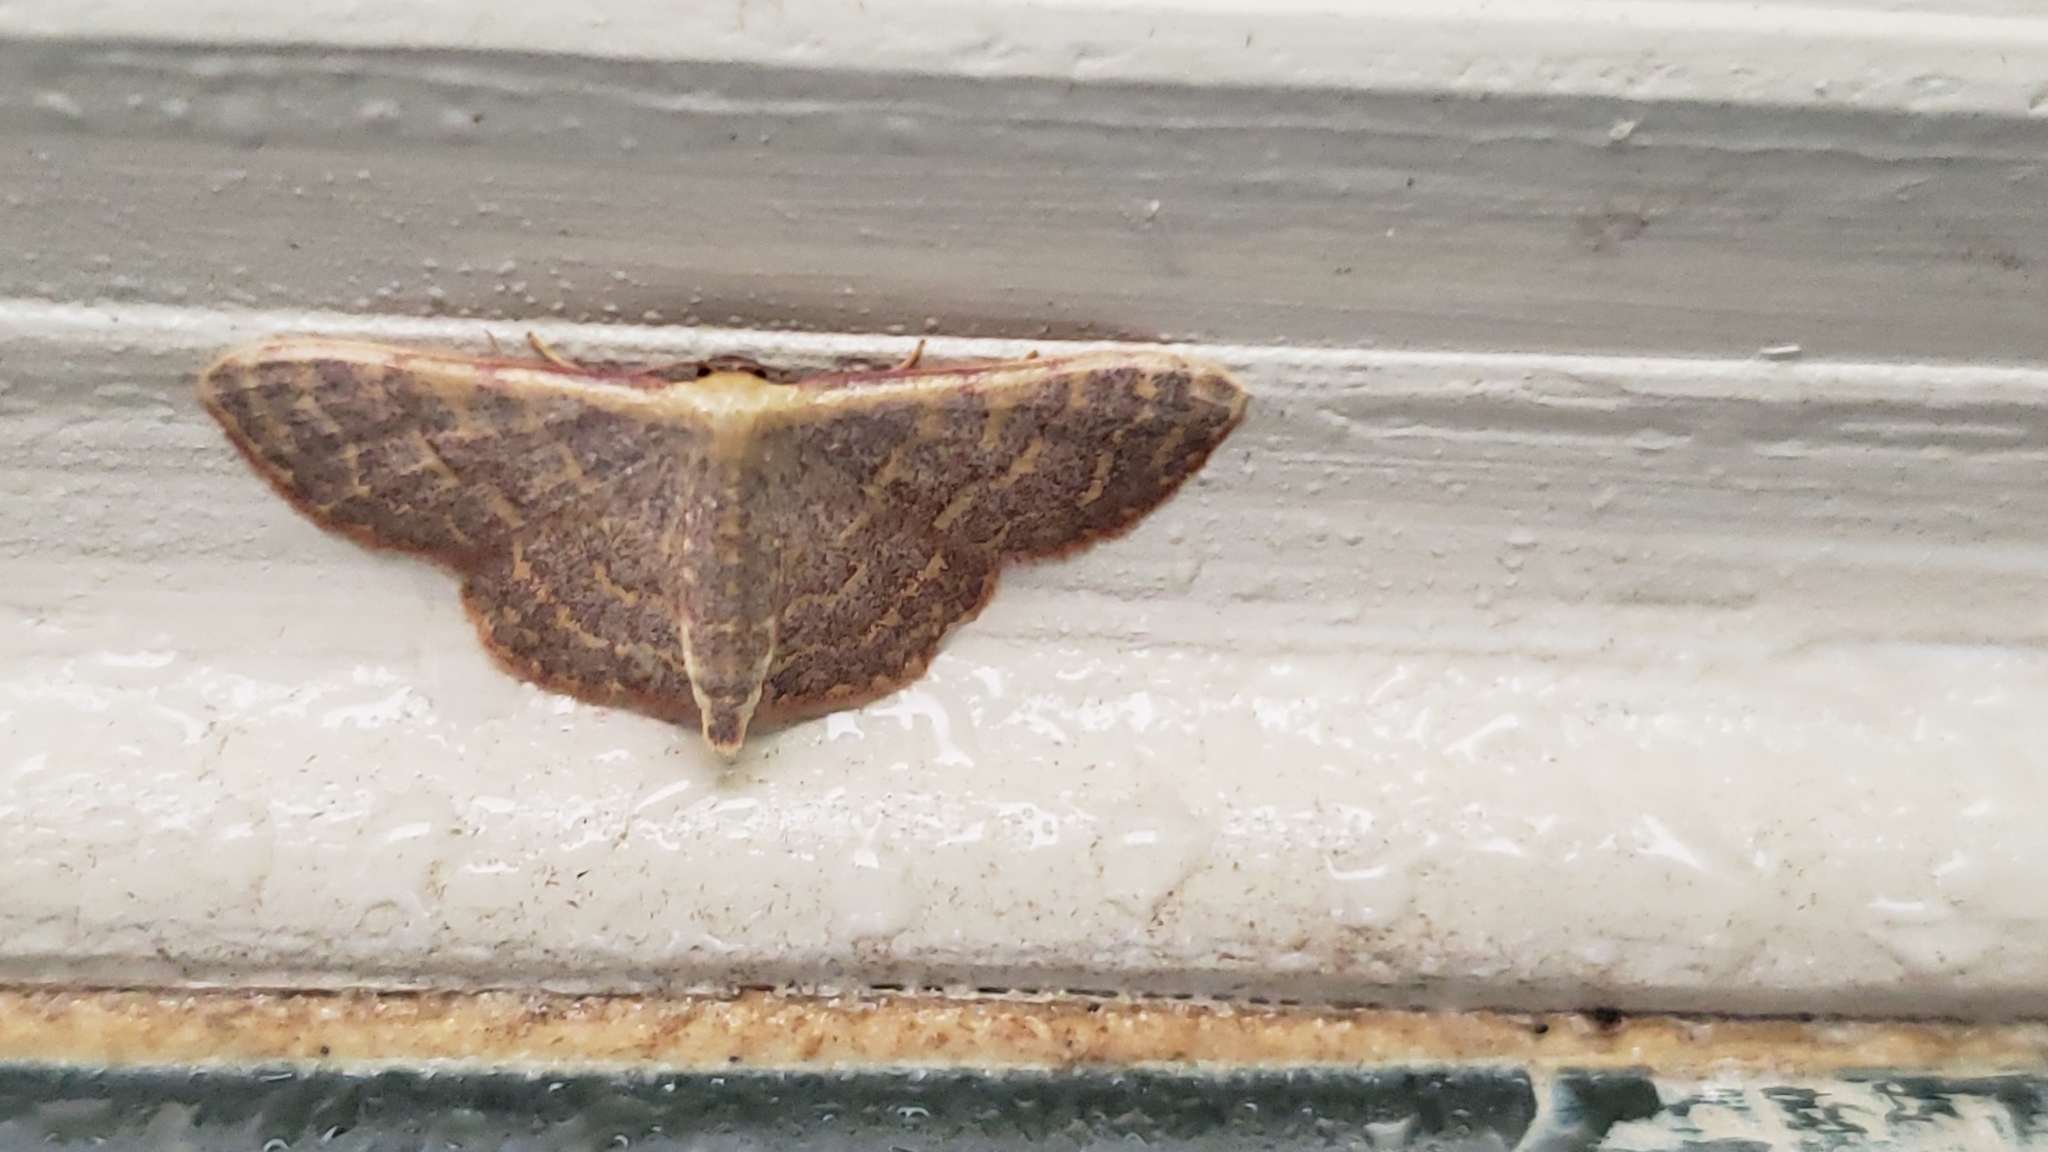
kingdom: Animalia
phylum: Arthropoda
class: Insecta
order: Lepidoptera
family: Geometridae
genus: Leptostales
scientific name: Leptostales pannaria
